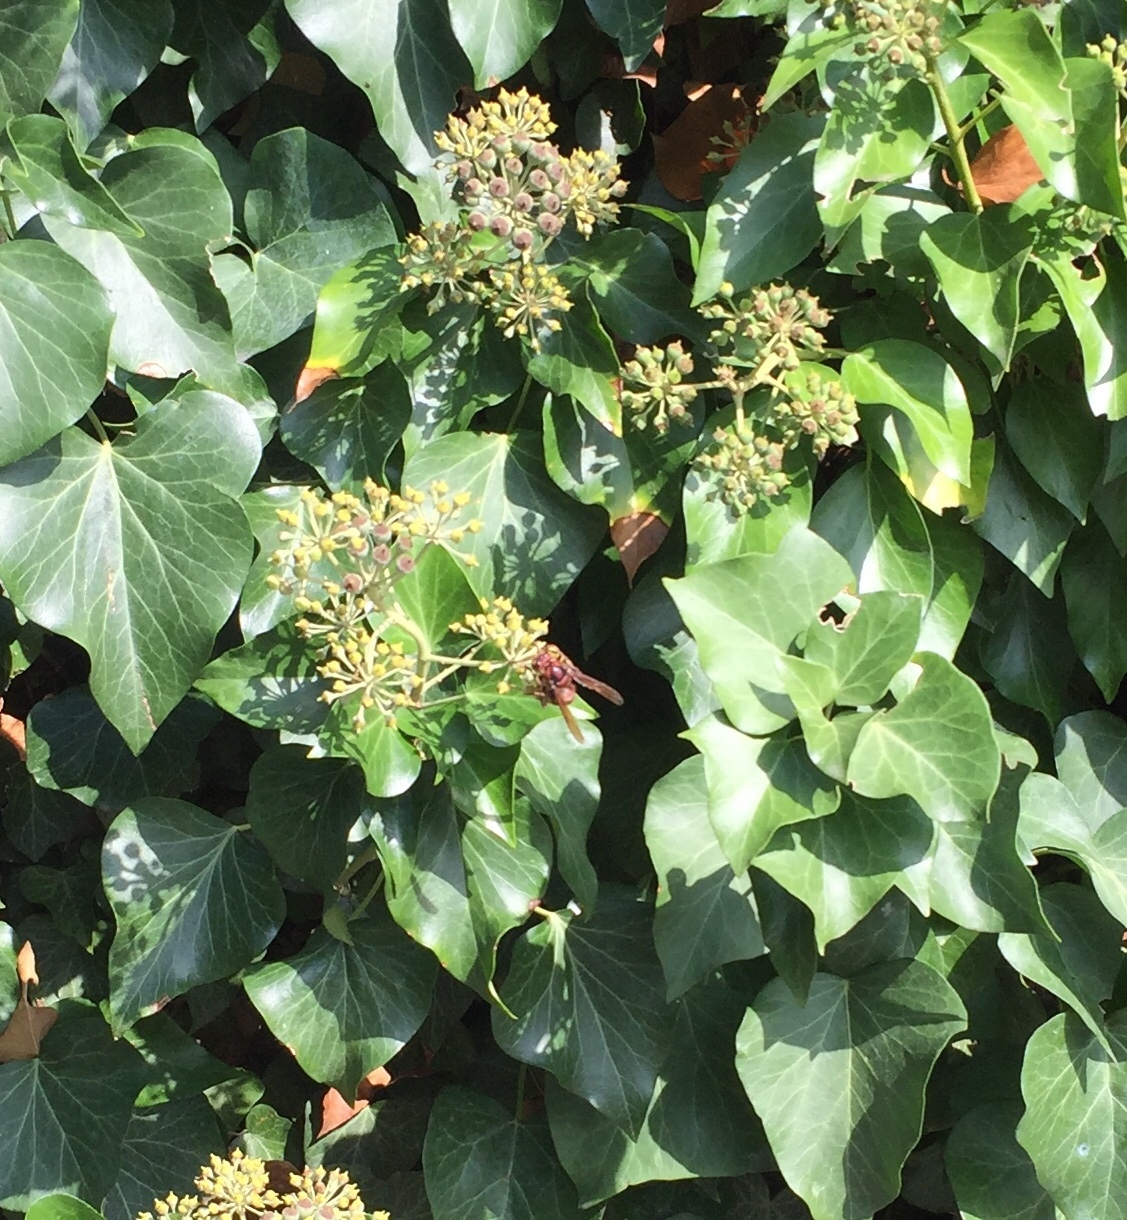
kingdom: Animalia
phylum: Arthropoda
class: Insecta
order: Hymenoptera
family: Vespidae
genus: Vespa
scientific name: Vespa crabro
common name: Hornet
